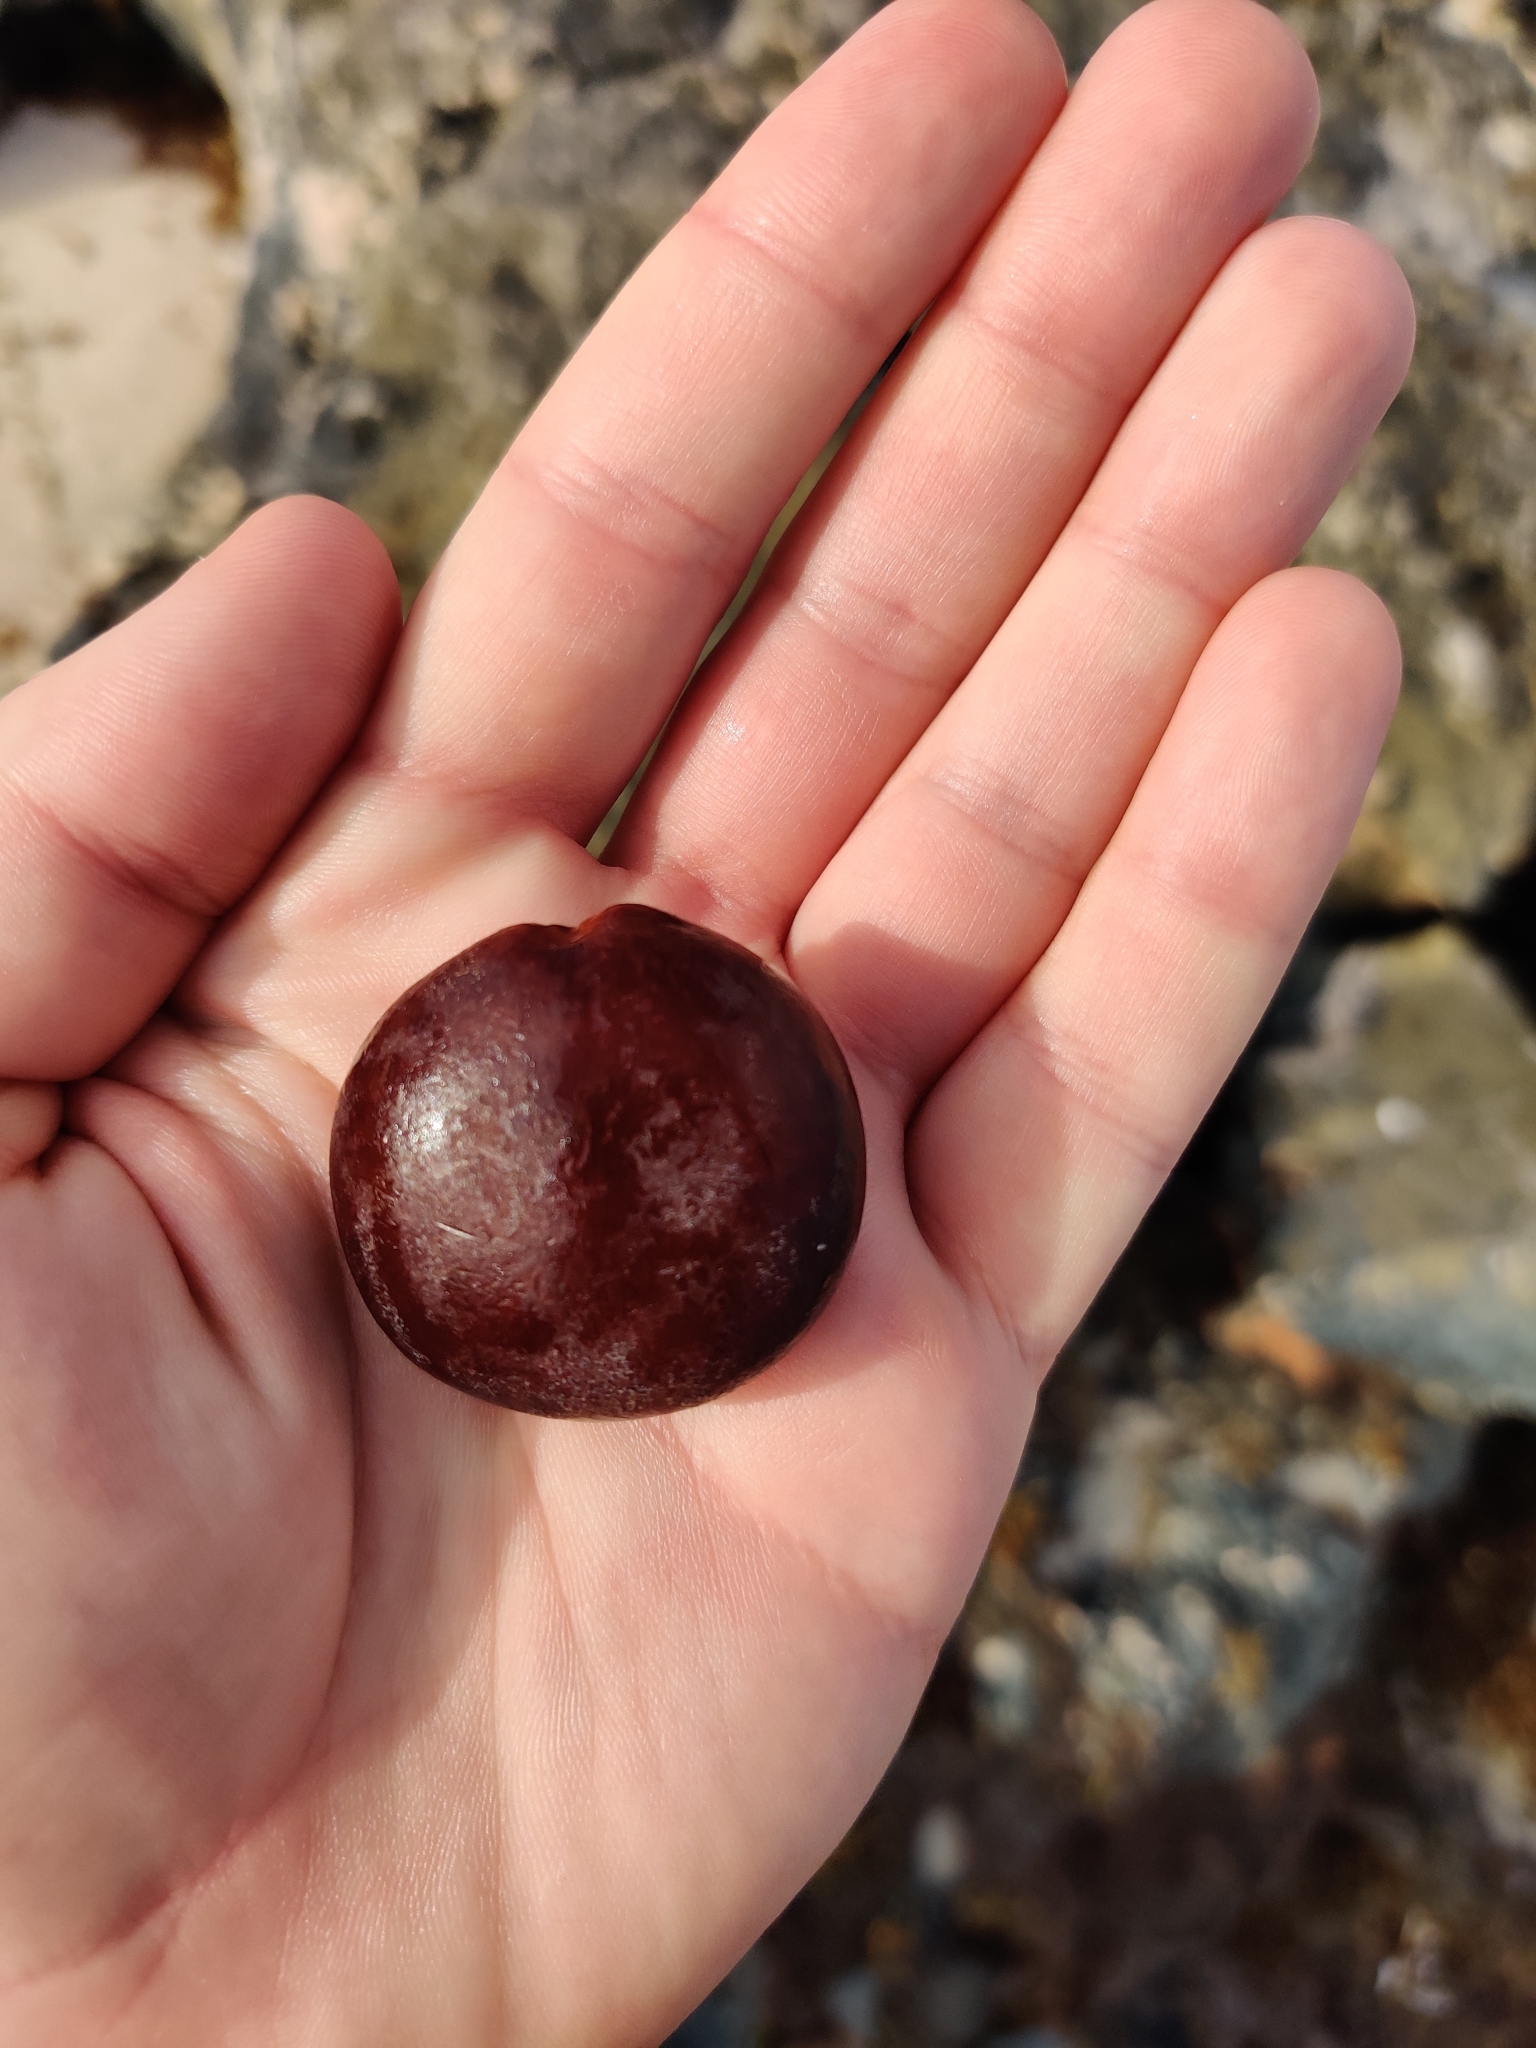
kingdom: Plantae
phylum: Tracheophyta
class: Magnoliopsida
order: Fabales
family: Fabaceae
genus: Entada
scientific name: Entada gigas
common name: Nicker-bean
